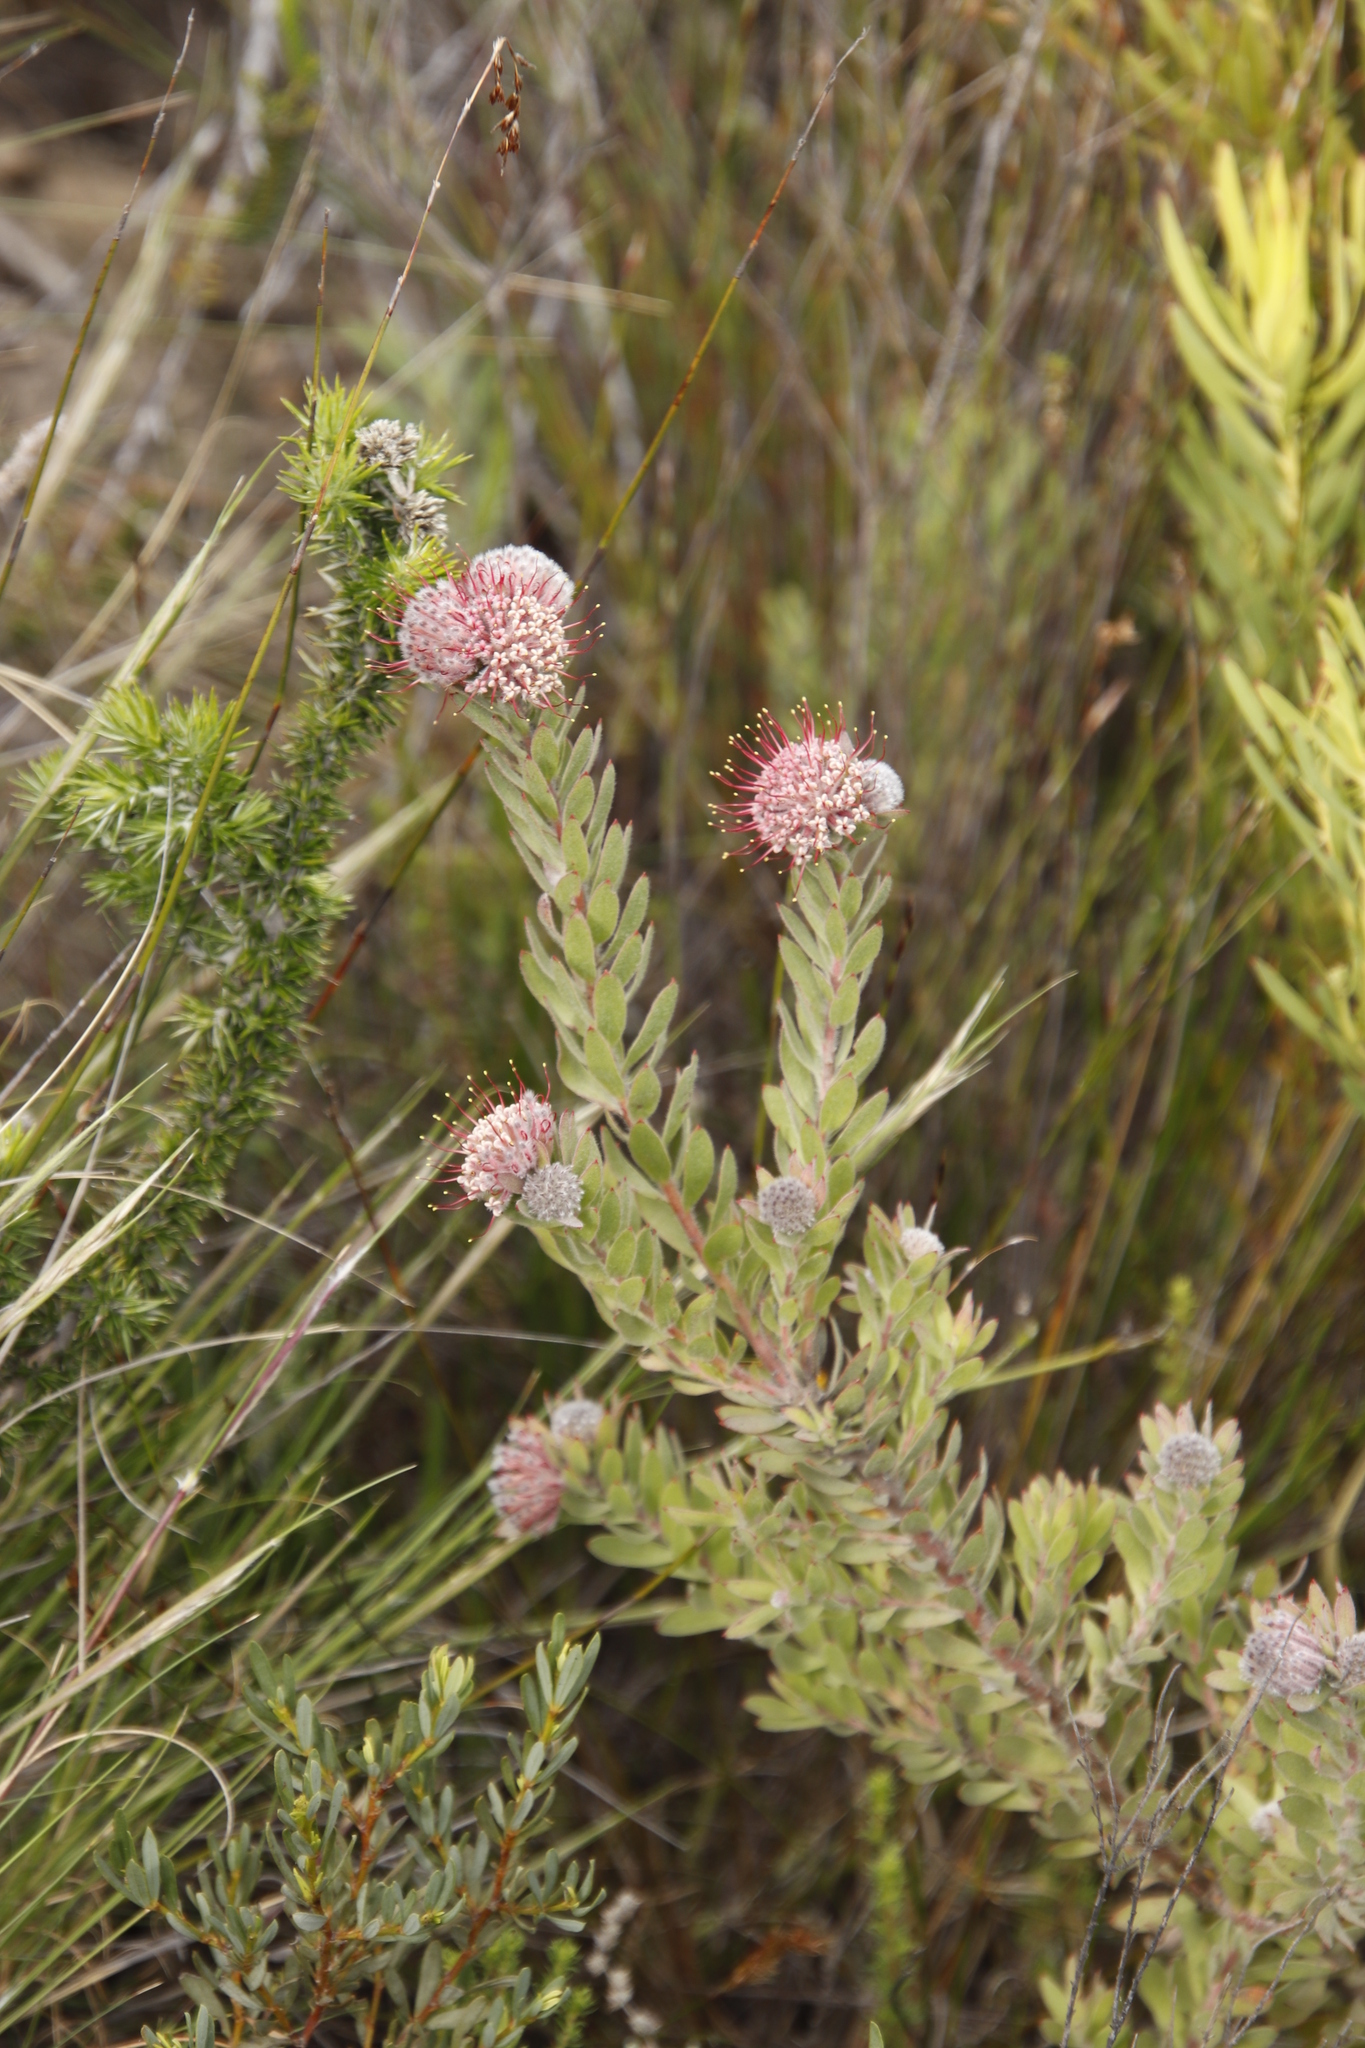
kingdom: Plantae
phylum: Tracheophyta
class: Magnoliopsida
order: Proteales
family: Proteaceae
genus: Leucospermum
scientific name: Leucospermum wittebergense
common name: Swartberg pincushion
